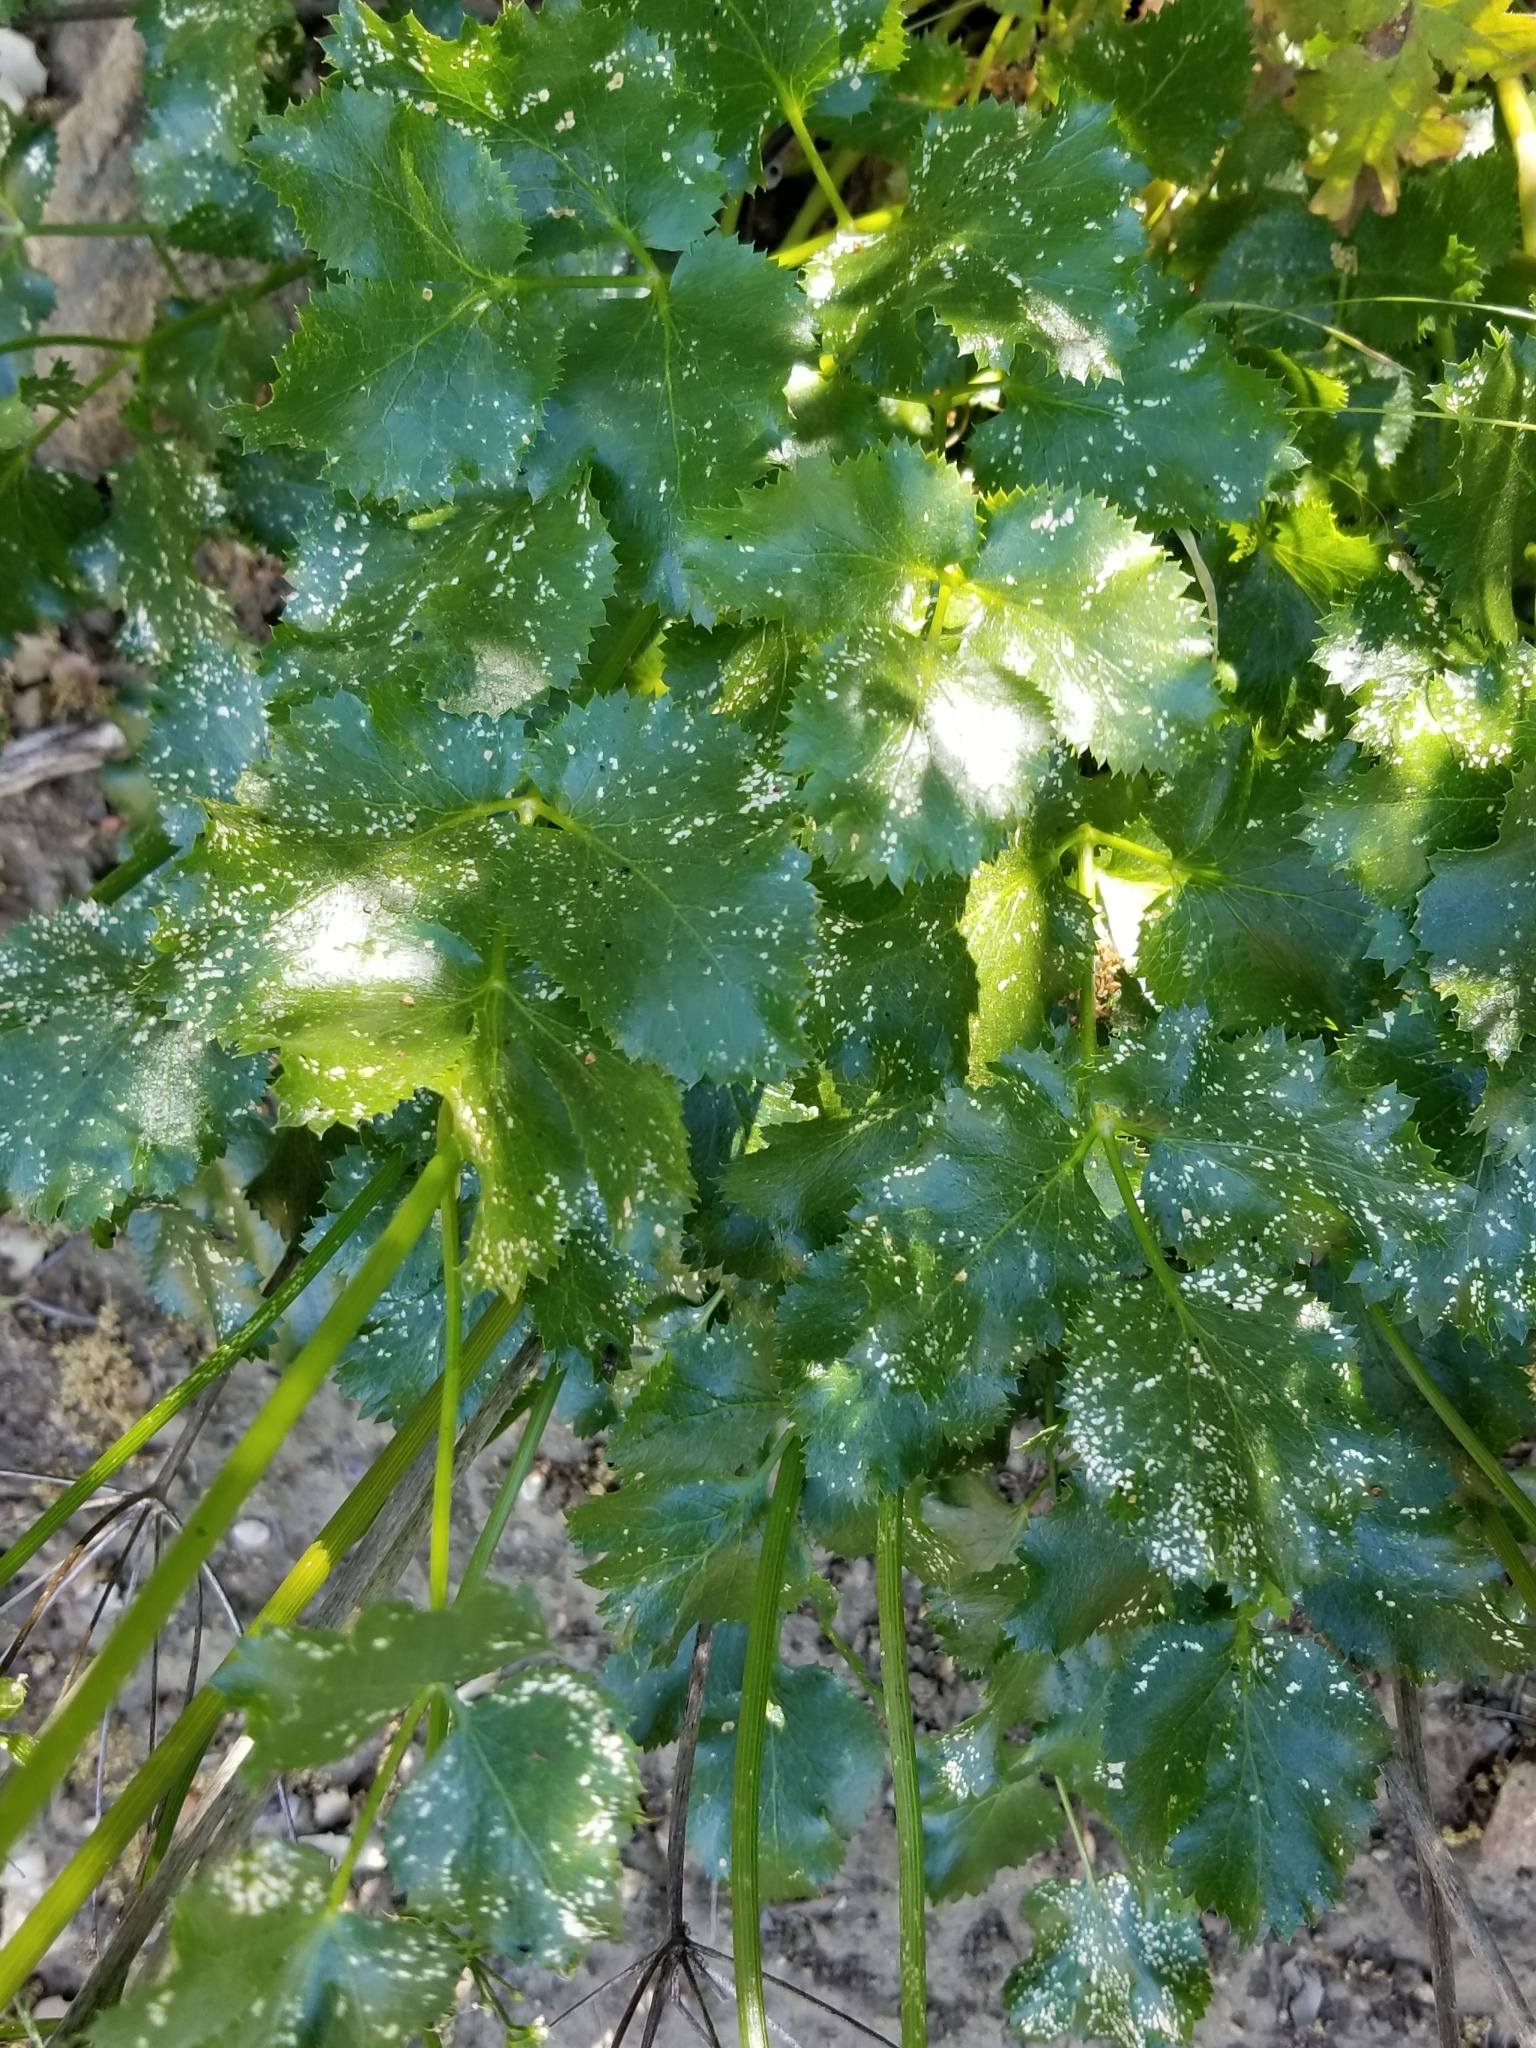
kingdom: Plantae
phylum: Tracheophyta
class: Magnoliopsida
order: Apiales
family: Apiaceae
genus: Tauschia
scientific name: Tauschia arguta
